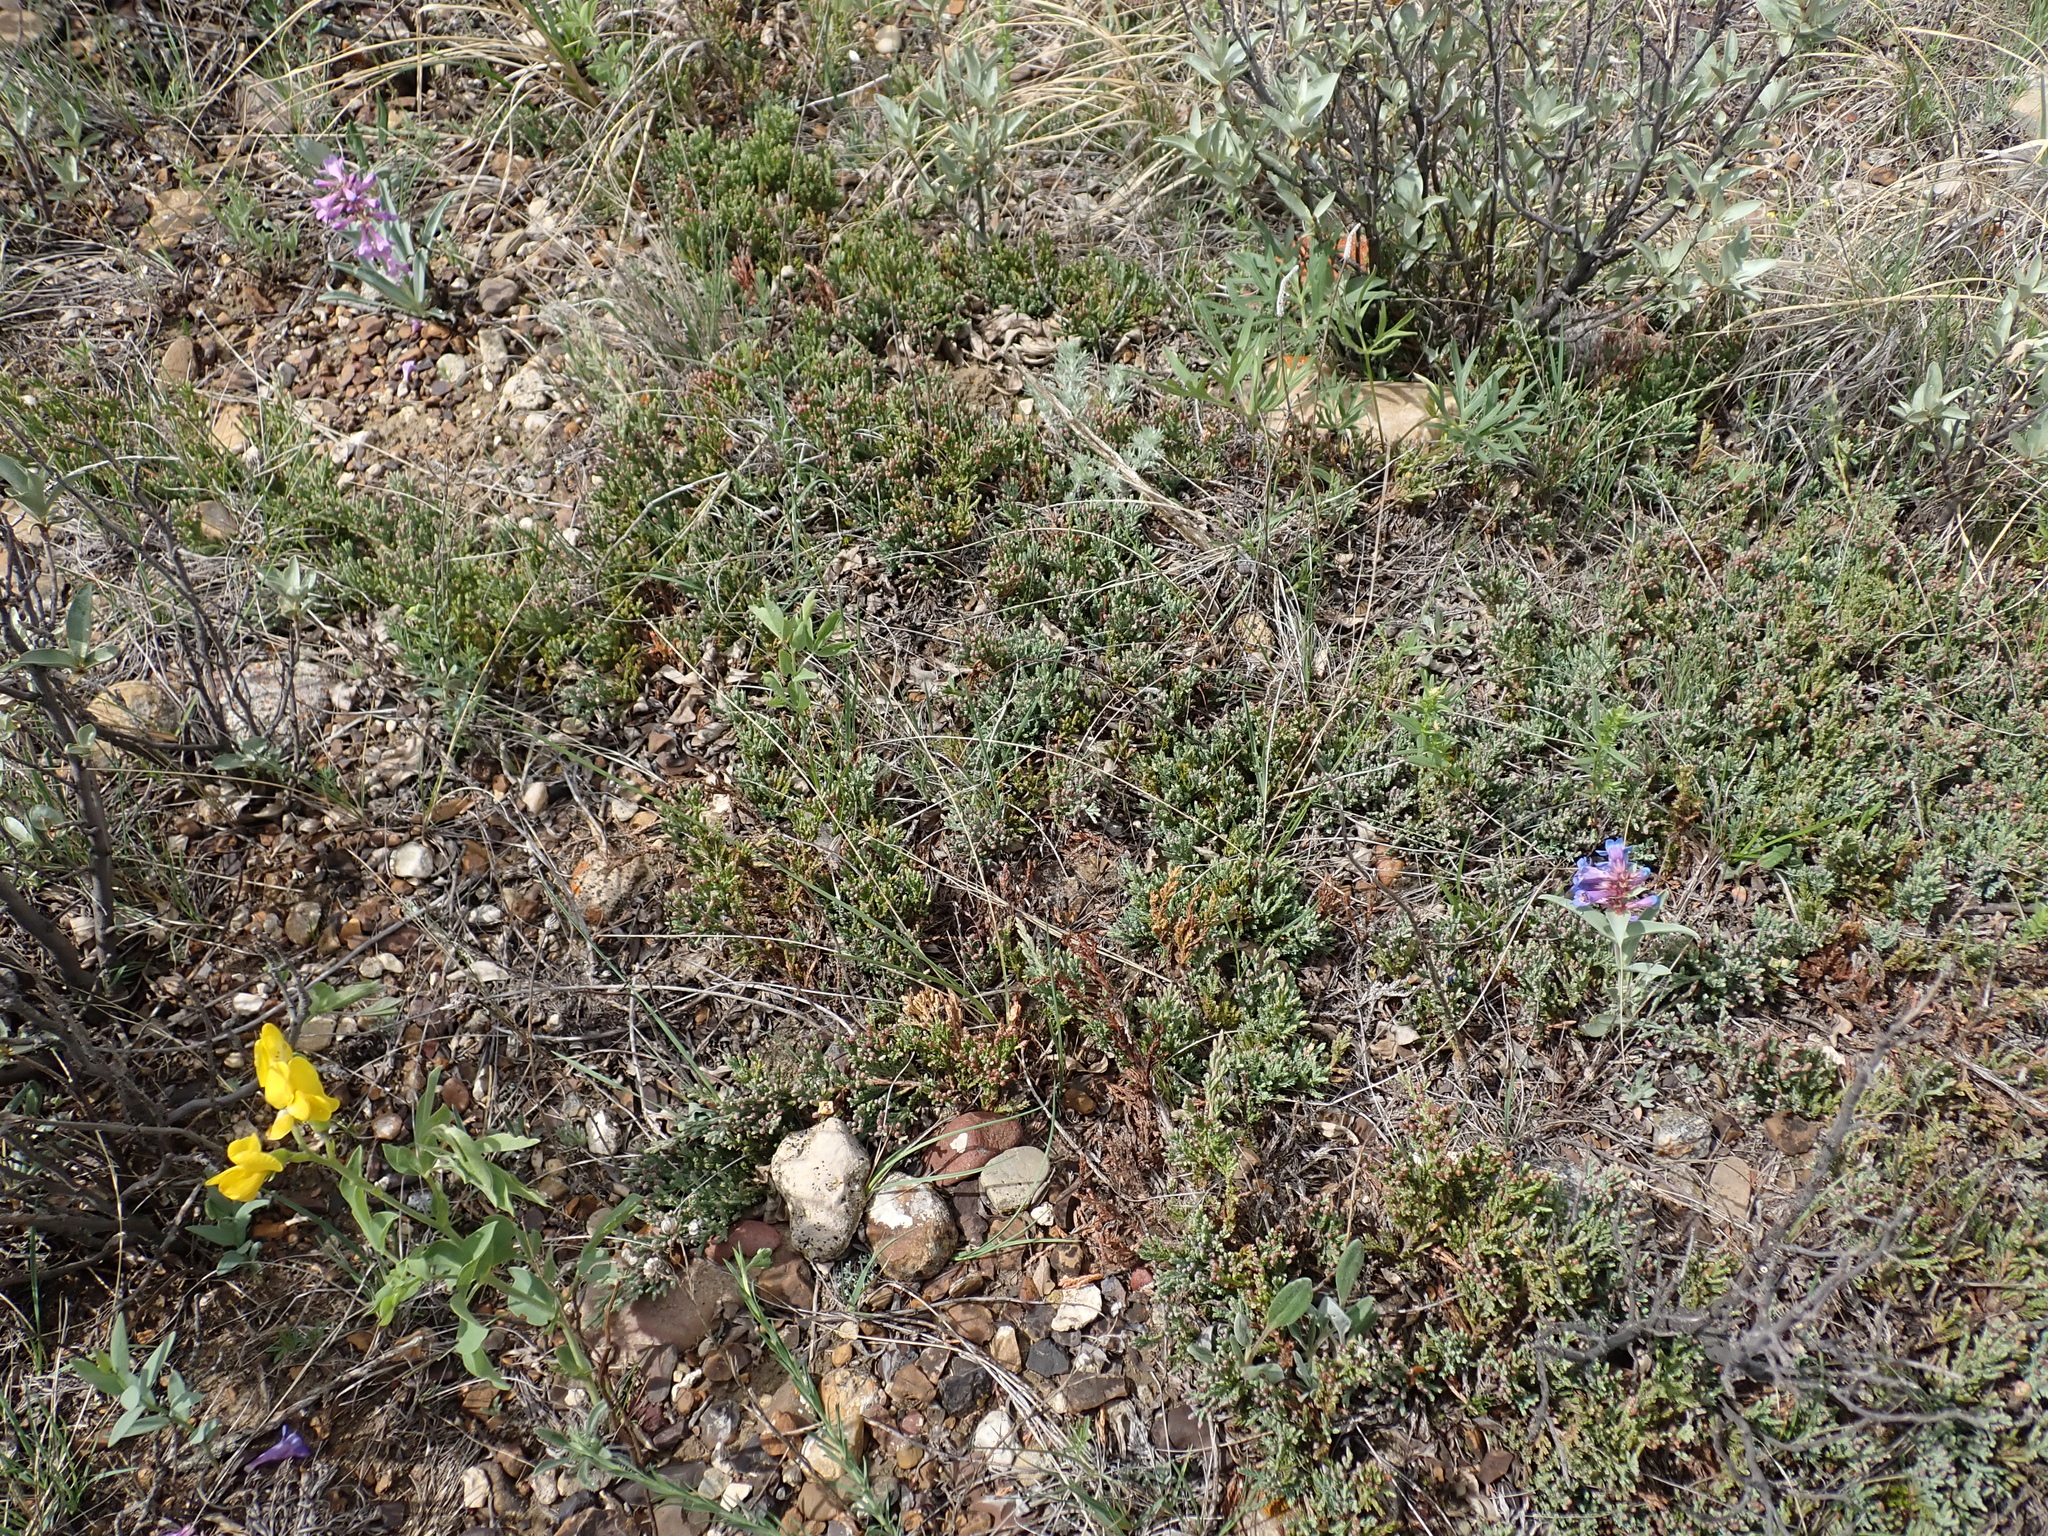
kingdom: Plantae
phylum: Tracheophyta
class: Pinopsida
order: Pinales
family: Cupressaceae
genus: Juniperus
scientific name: Juniperus horizontalis
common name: Creeping juniper
